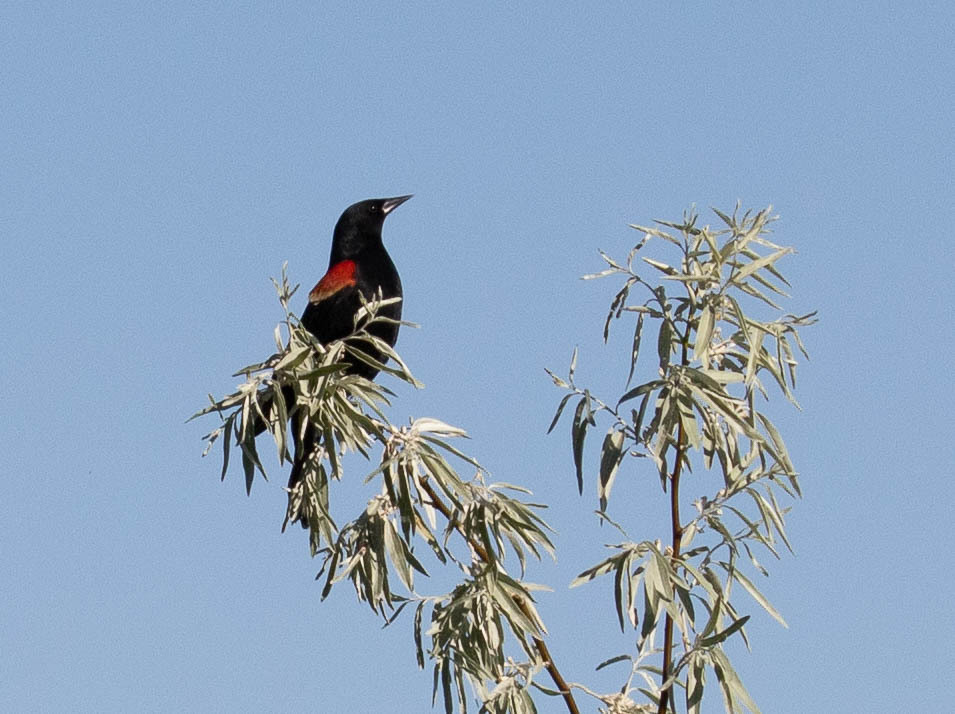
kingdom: Animalia
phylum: Chordata
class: Aves
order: Passeriformes
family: Icteridae
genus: Agelaius
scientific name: Agelaius phoeniceus
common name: Red-winged blackbird
